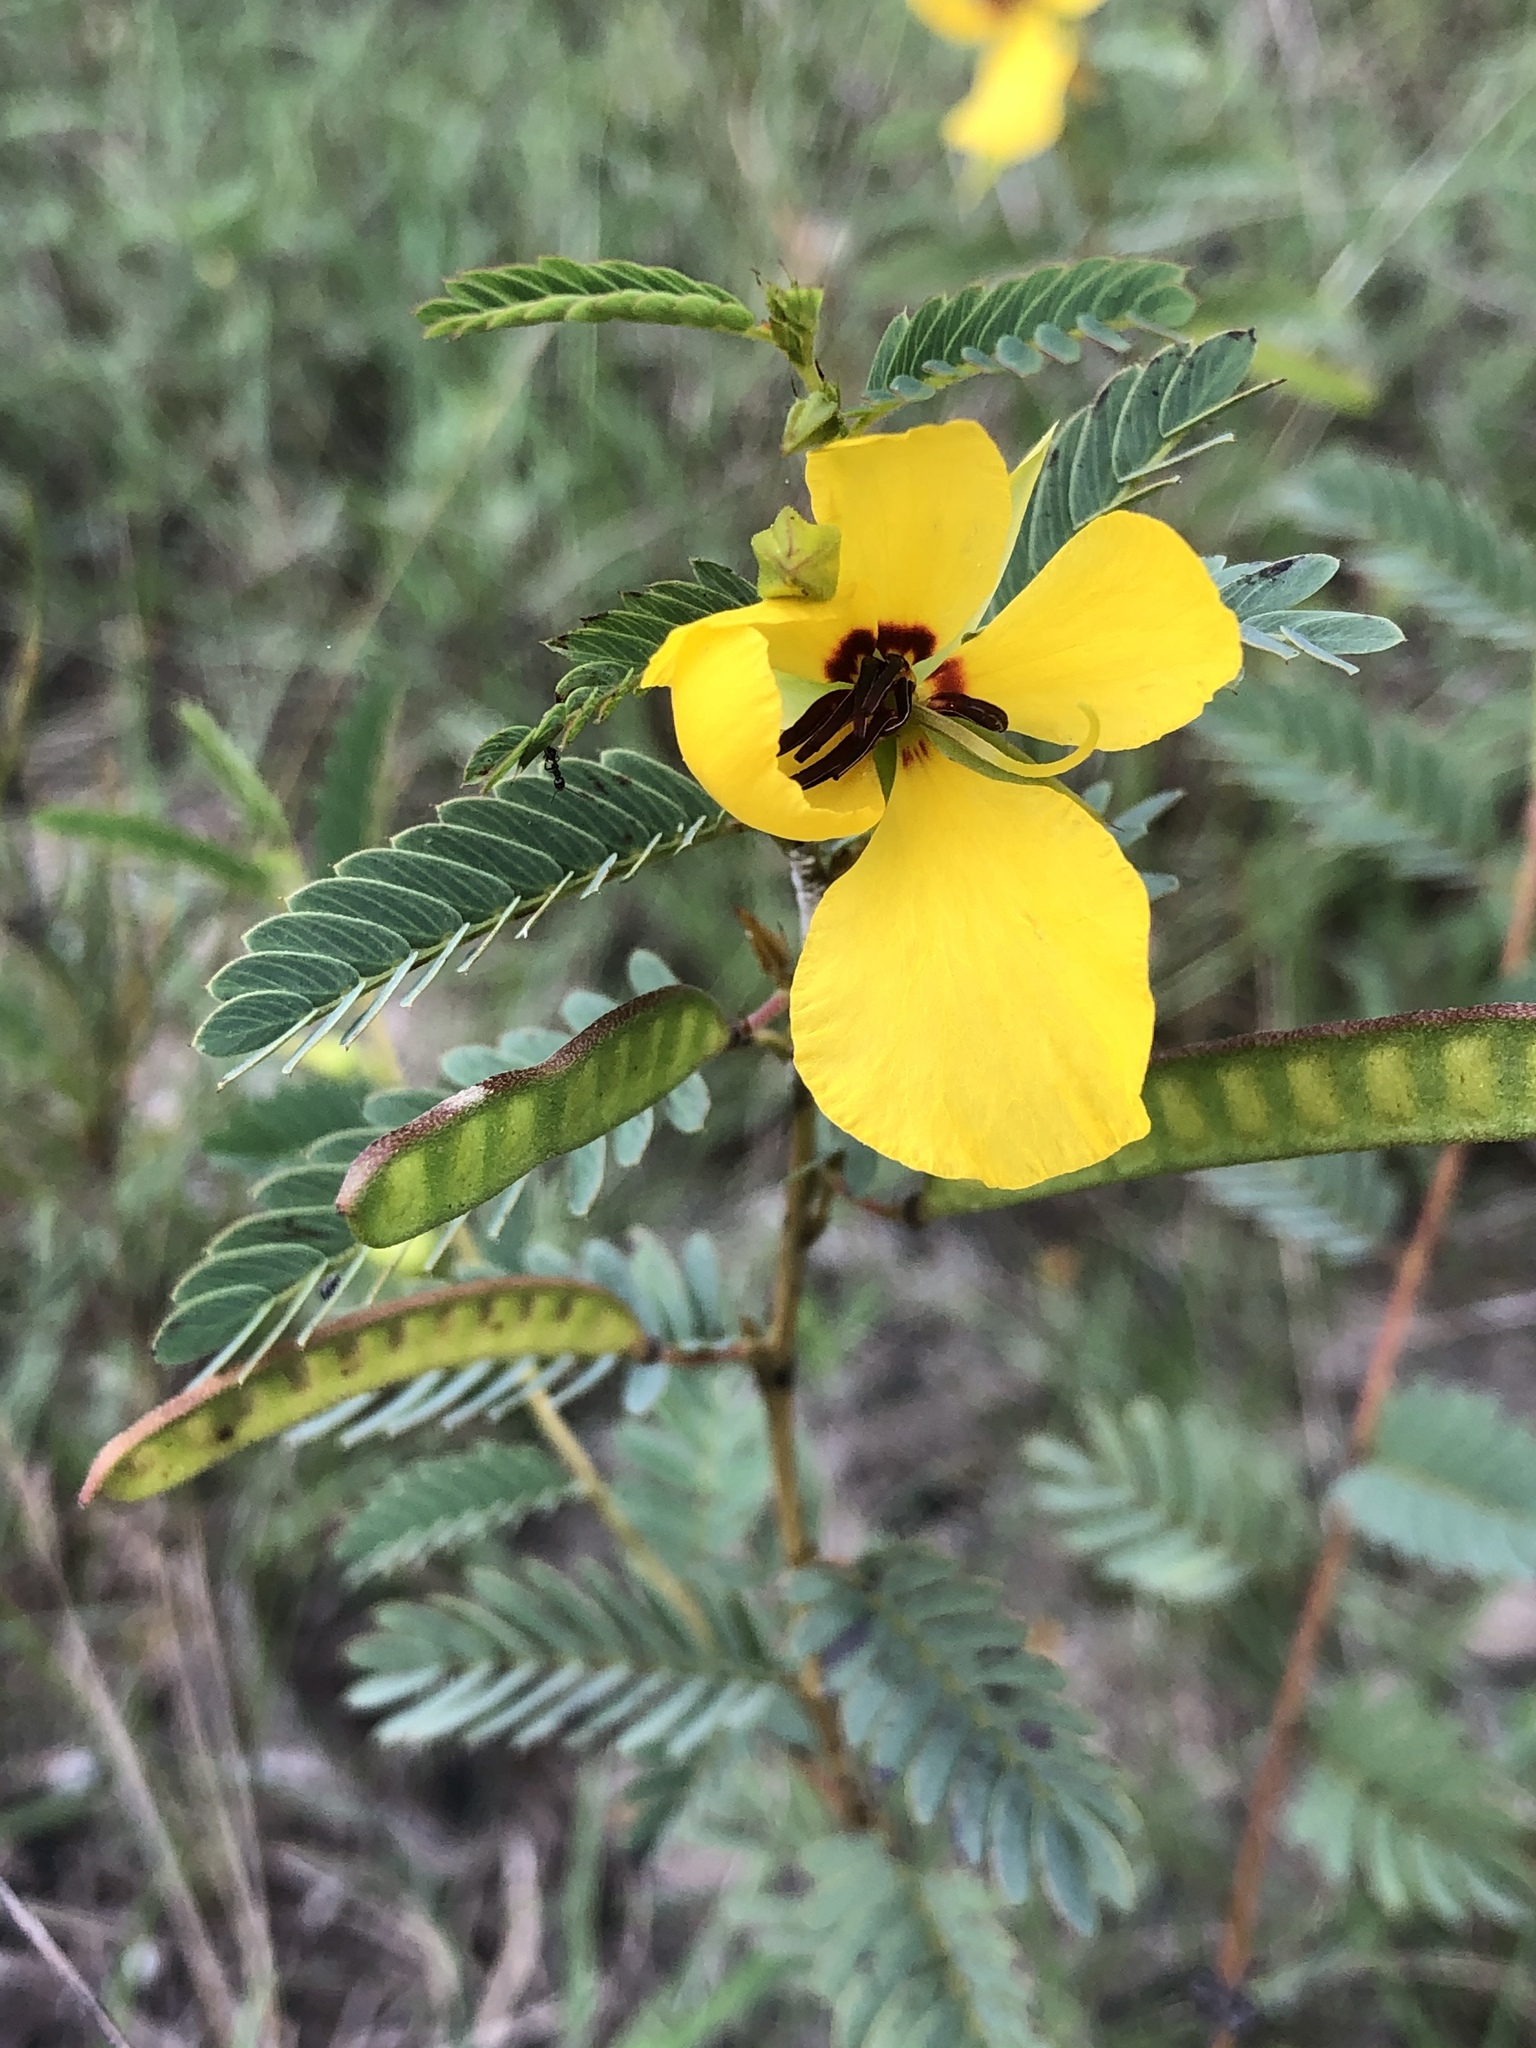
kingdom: Plantae
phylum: Tracheophyta
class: Magnoliopsida
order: Fabales
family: Fabaceae
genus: Chamaecrista
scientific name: Chamaecrista fasciculata
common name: Golden cassia
